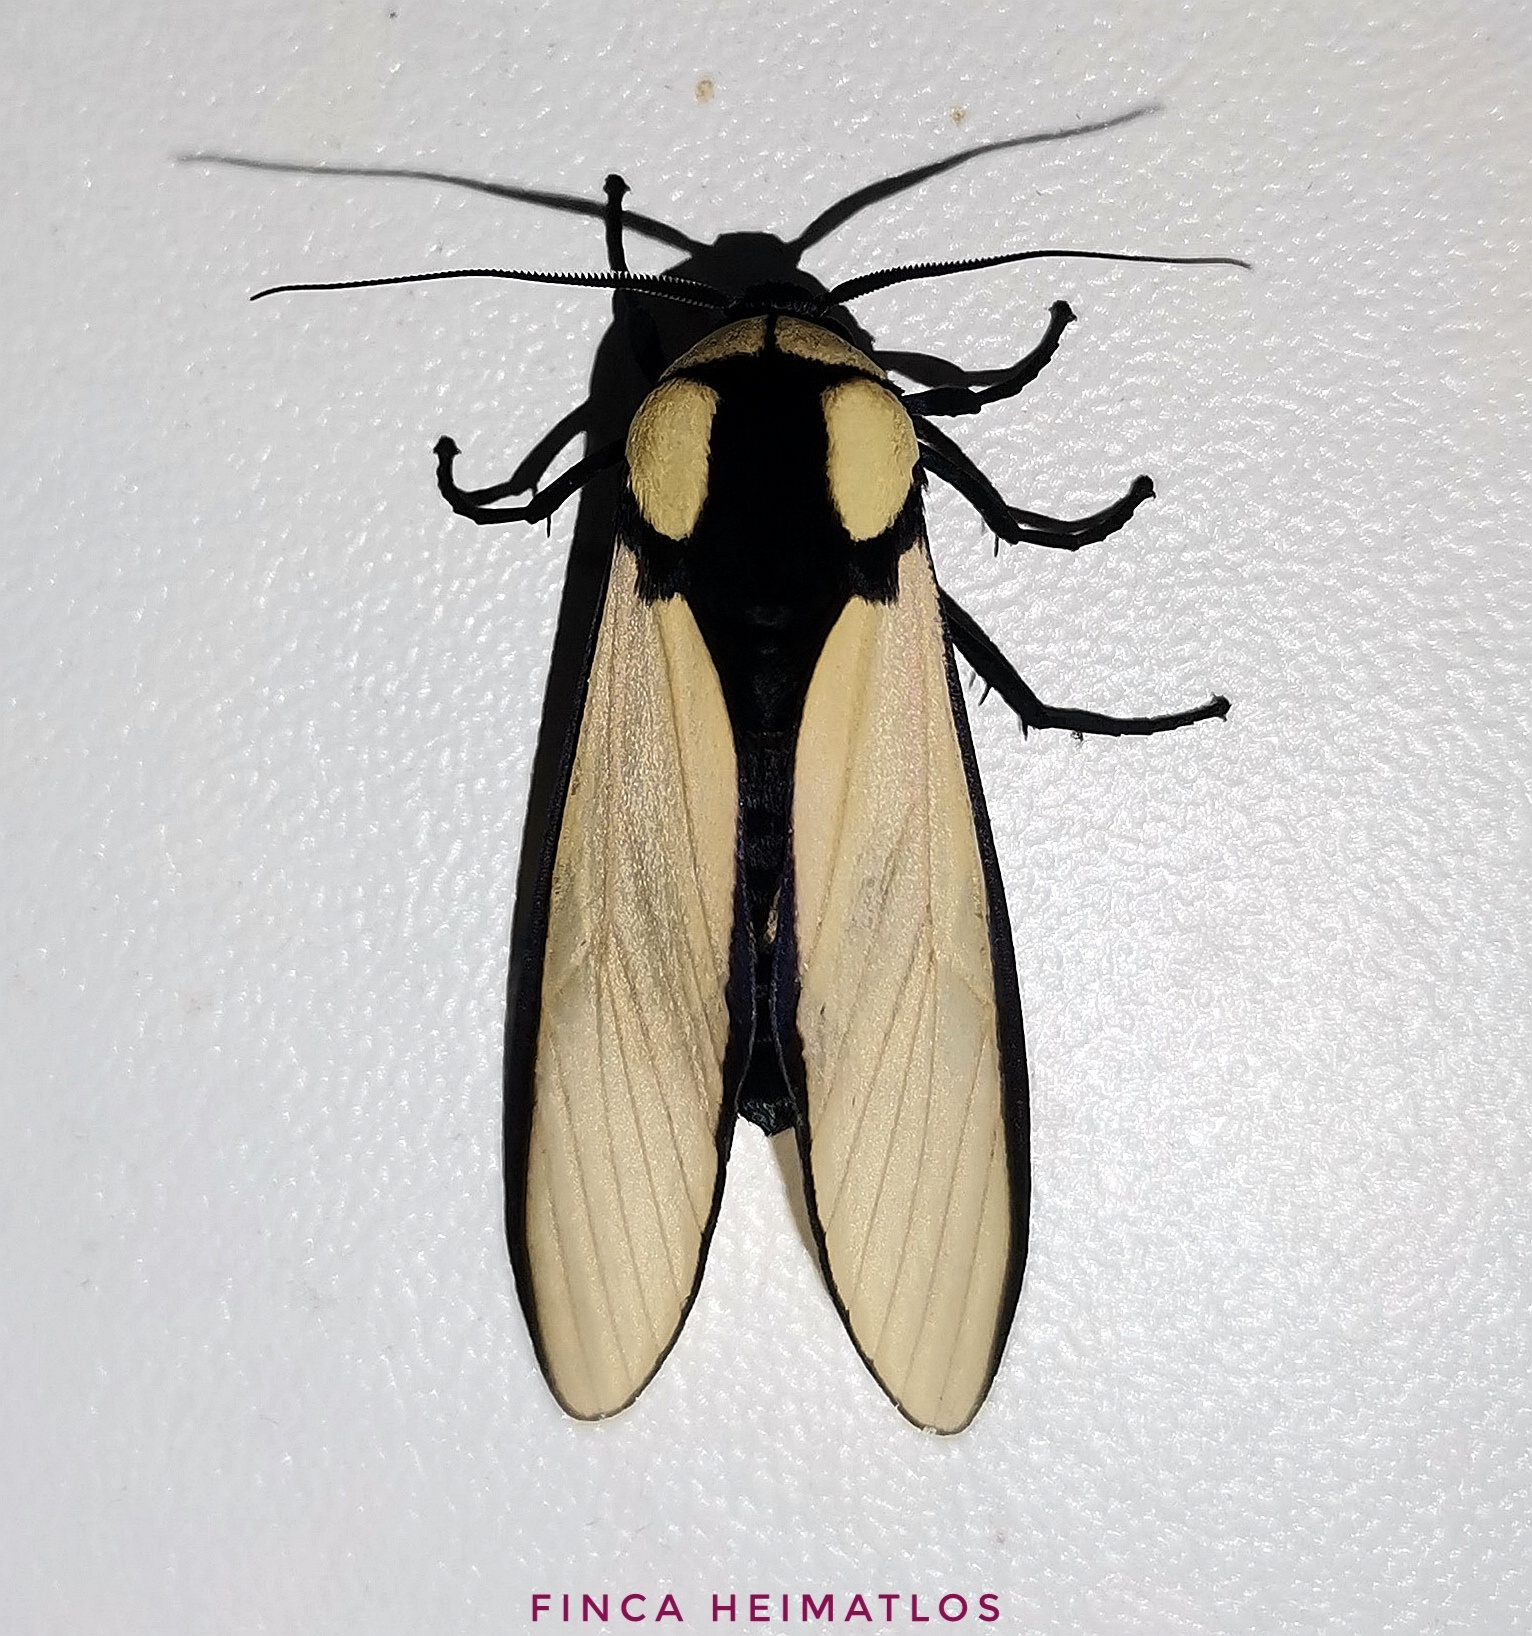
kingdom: Animalia
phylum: Arthropoda
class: Insecta
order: Lepidoptera
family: Erebidae
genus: Machaeraptenus
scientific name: Machaeraptenus ventralis
